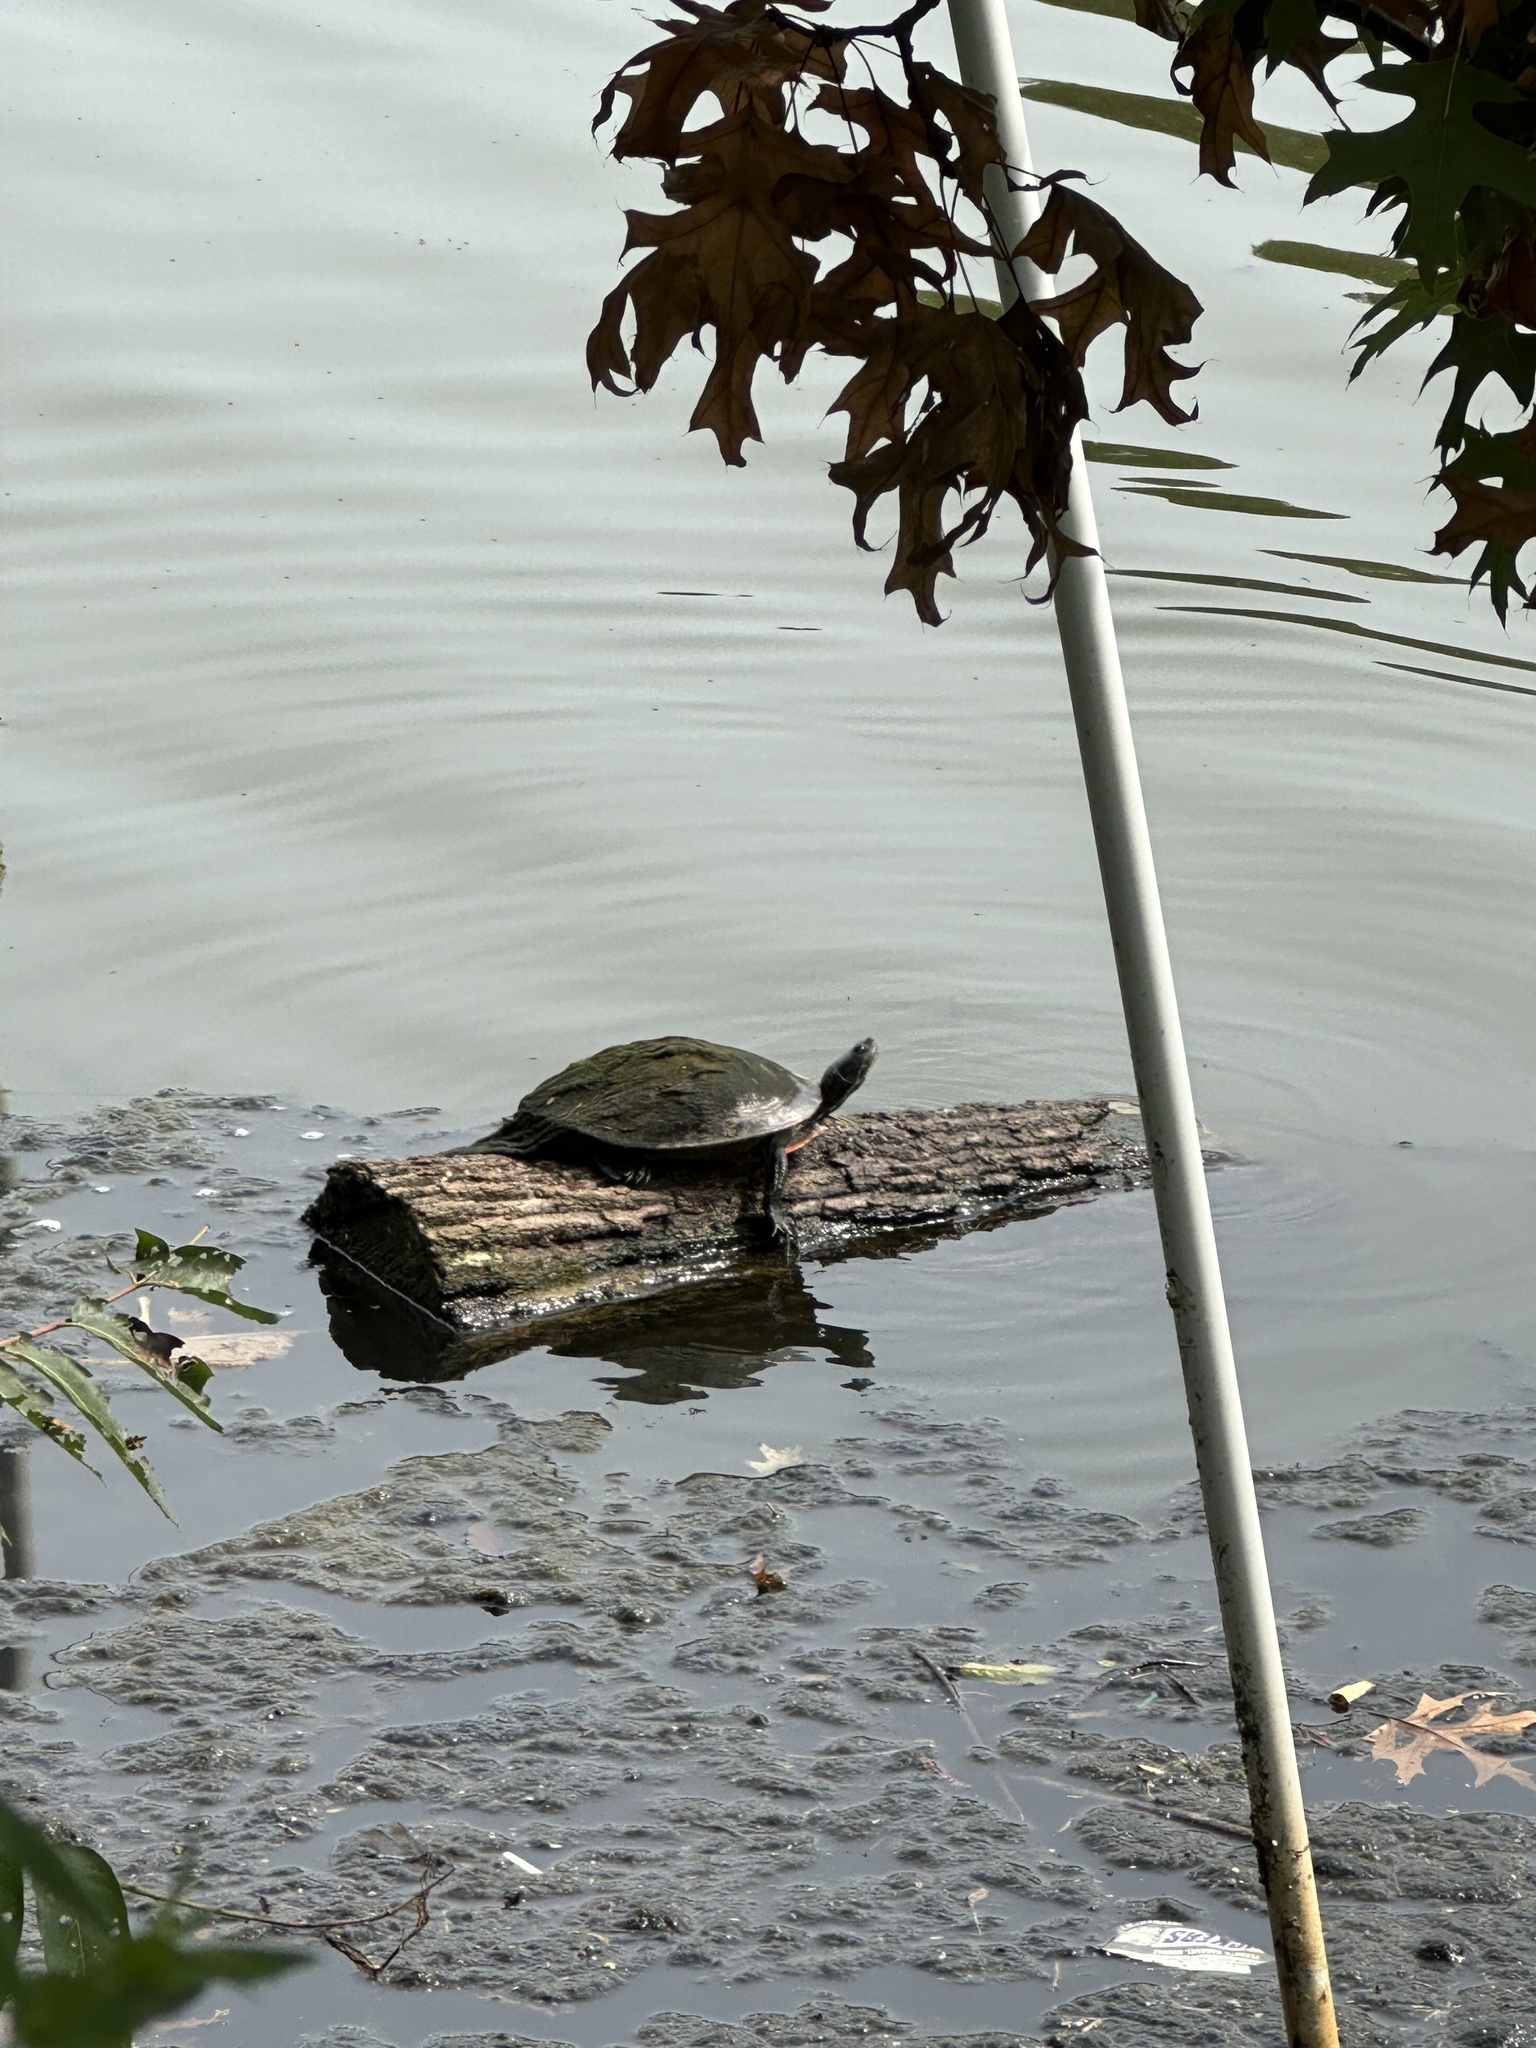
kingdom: Animalia
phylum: Chordata
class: Testudines
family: Emydidae
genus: Pseudemys
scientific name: Pseudemys rubriventris
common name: American red-bellied turtle
